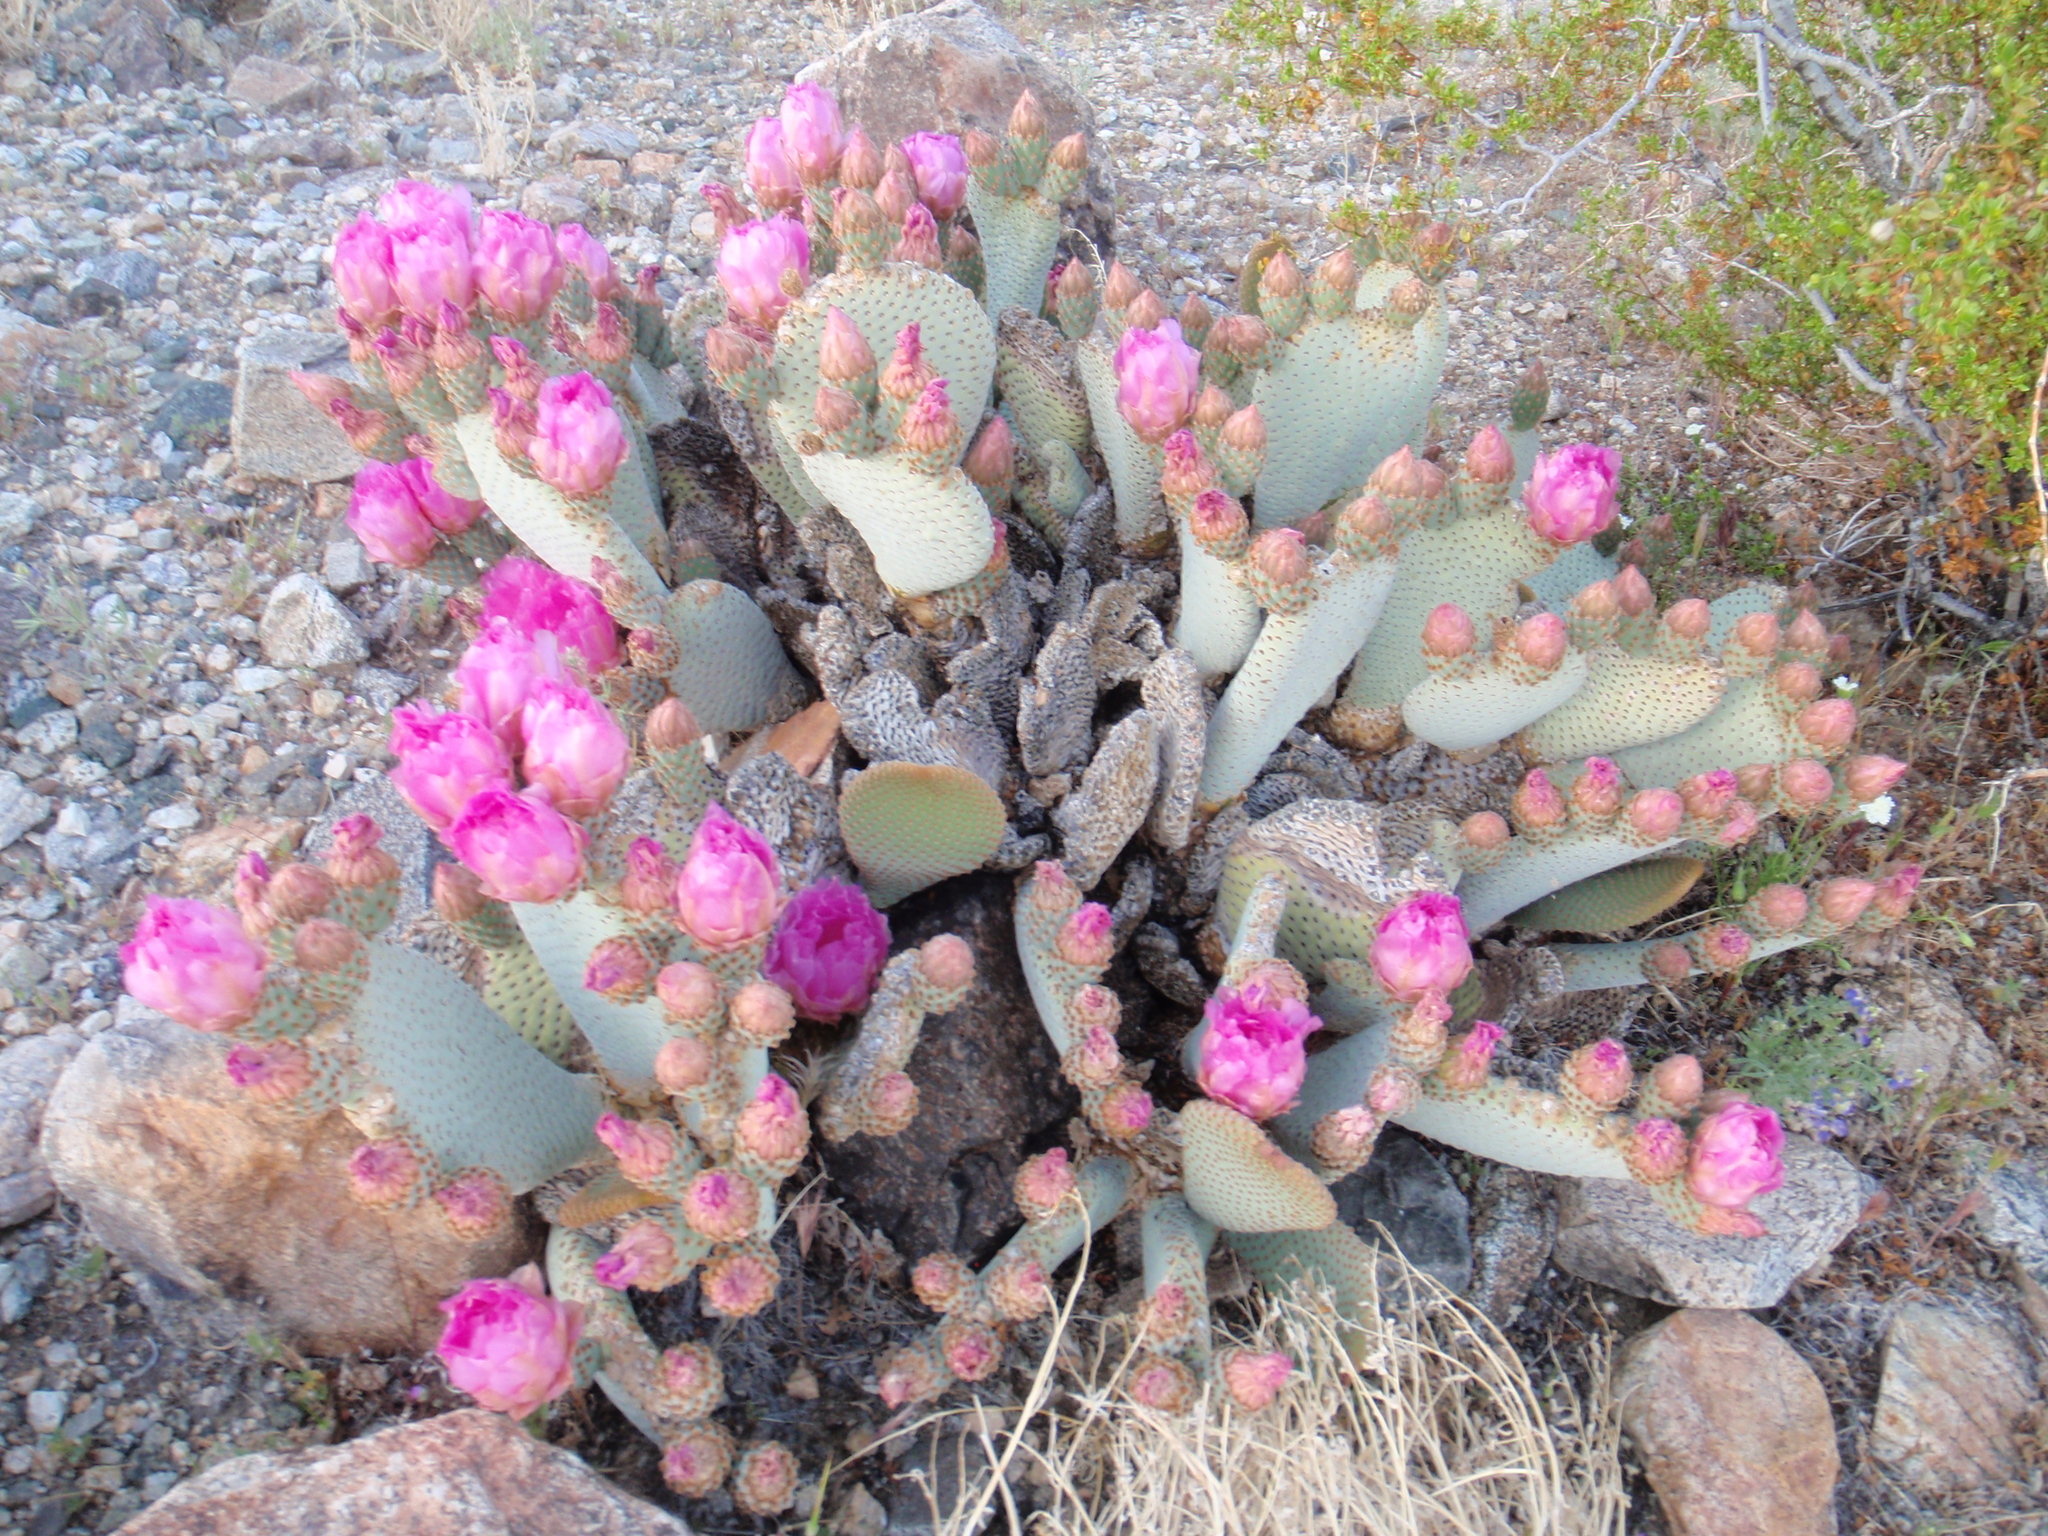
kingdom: Plantae
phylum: Tracheophyta
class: Magnoliopsida
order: Caryophyllales
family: Cactaceae
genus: Opuntia
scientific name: Opuntia basilaris
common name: Beavertail prickly-pear
